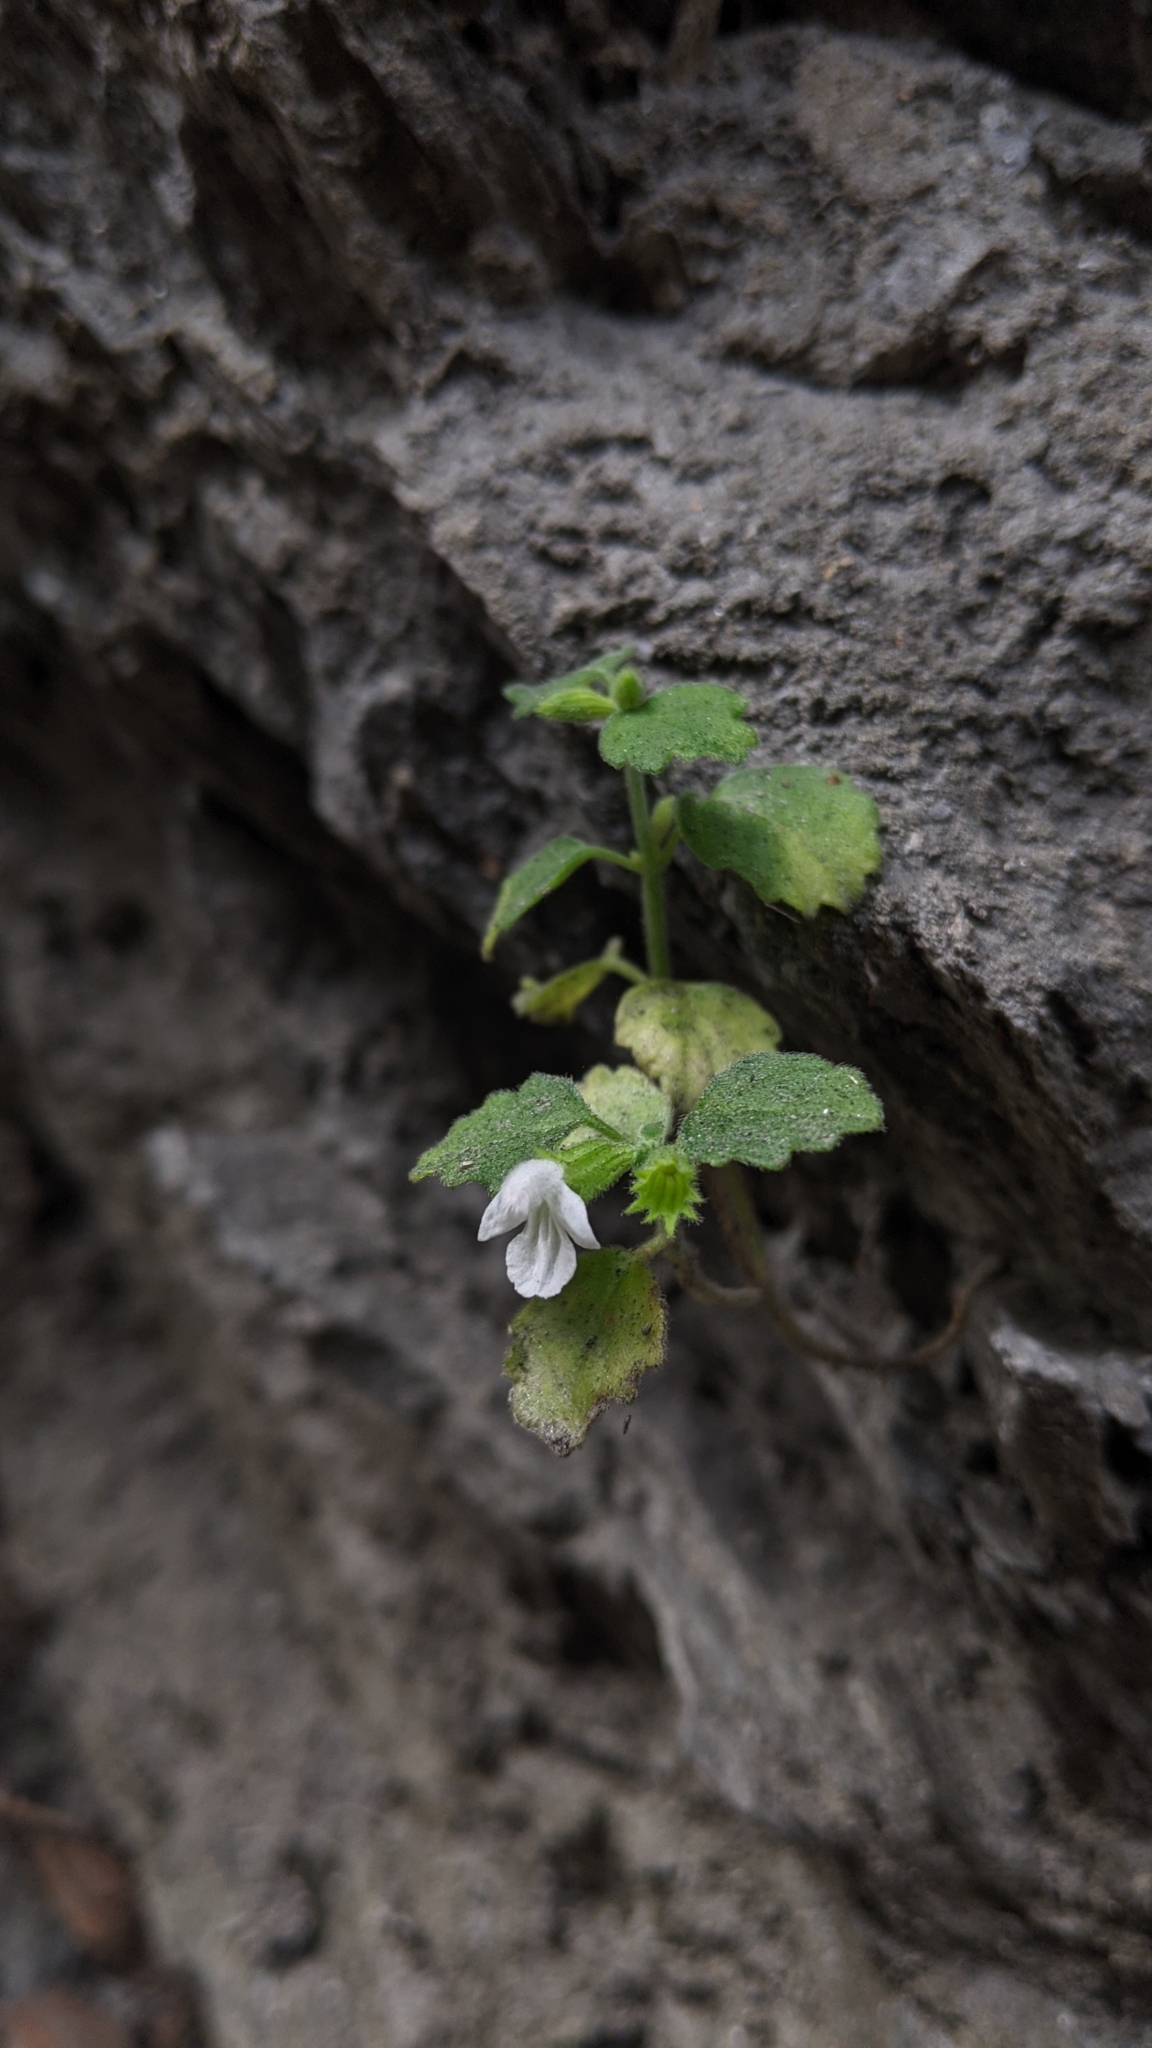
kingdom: Plantae
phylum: Tracheophyta
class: Magnoliopsida
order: Lamiales
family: Lamiaceae
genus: Leucas
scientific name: Leucas chinensis
